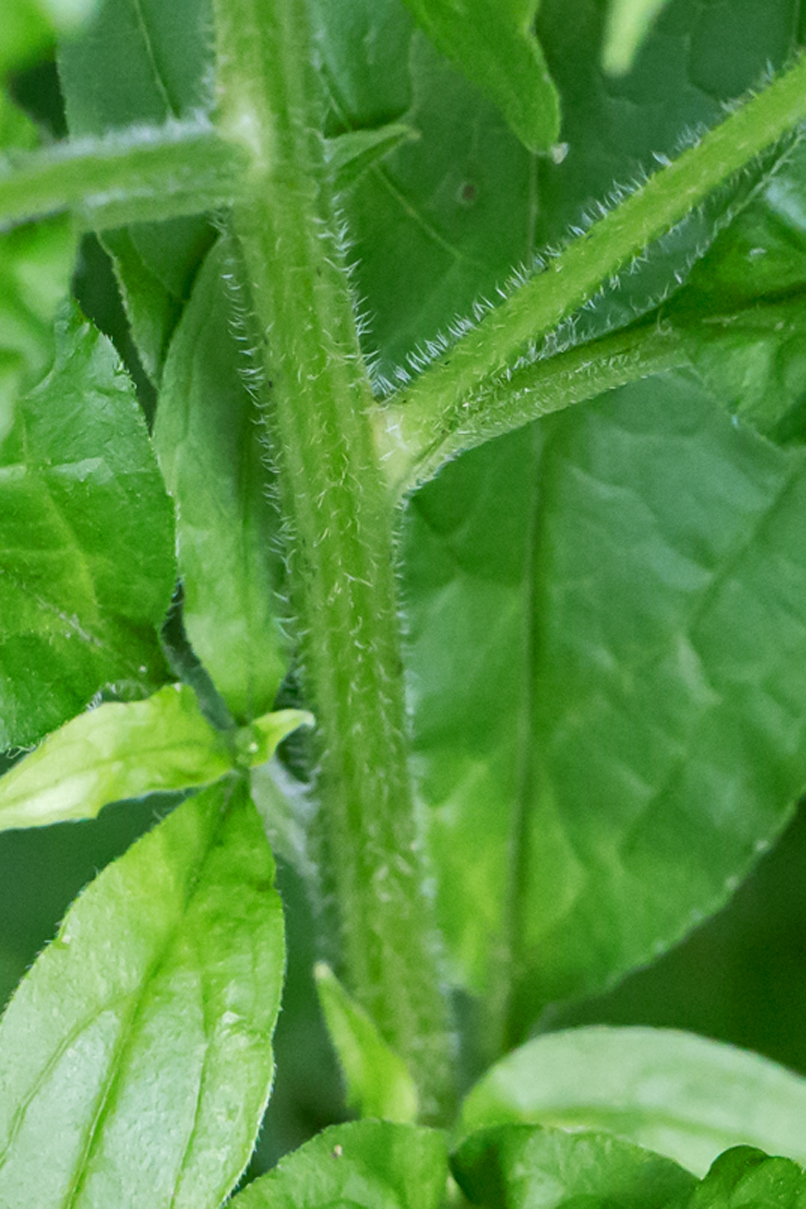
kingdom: Plantae
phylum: Tracheophyta
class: Magnoliopsida
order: Boraginales
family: Boraginaceae
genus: Hackelia
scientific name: Hackelia virginiana
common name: Beggar's-lice
